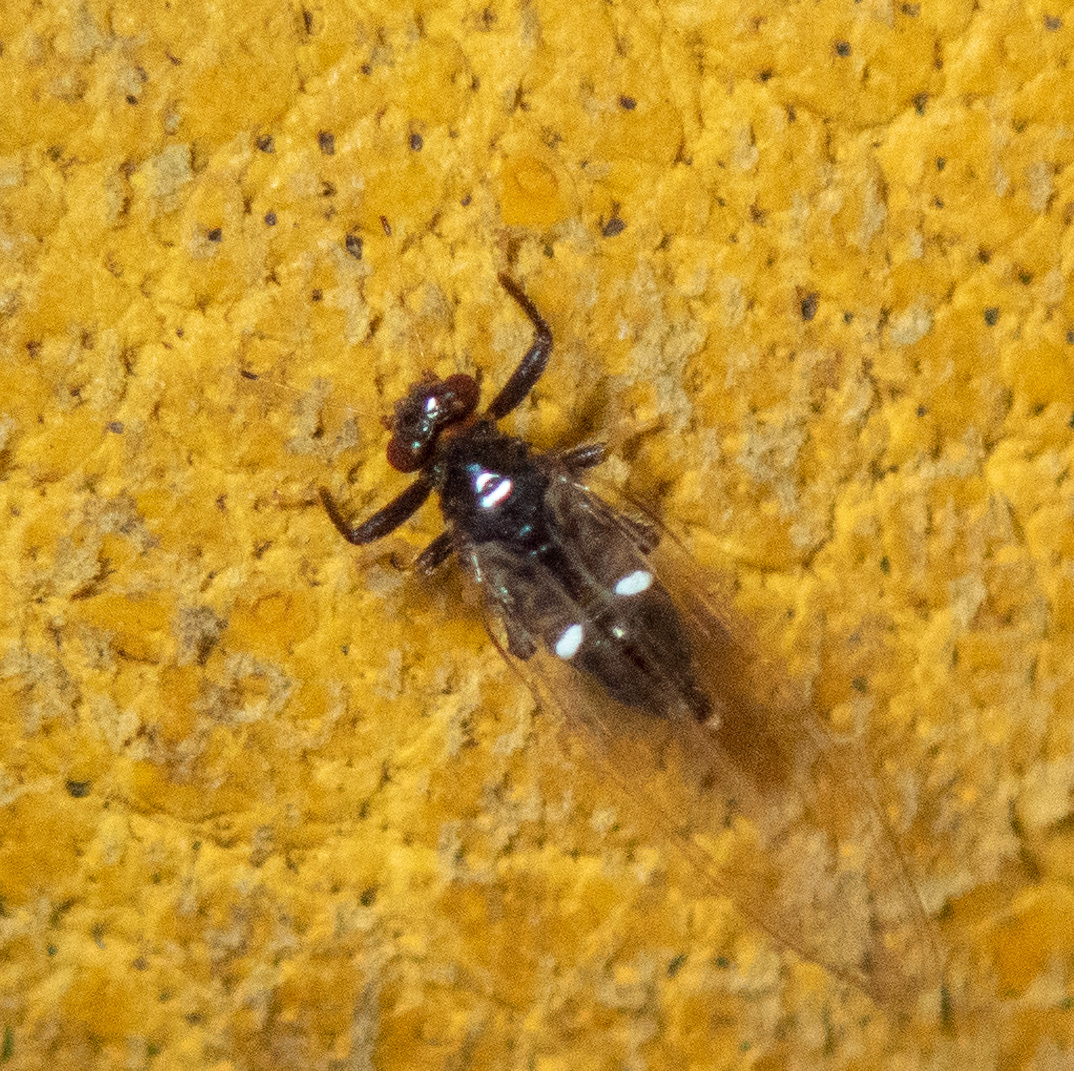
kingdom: Animalia
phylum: Arthropoda
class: Insecta
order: Hemiptera
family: Triozidae
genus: Baeoalitriozus
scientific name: Baeoalitriozus diospyri
